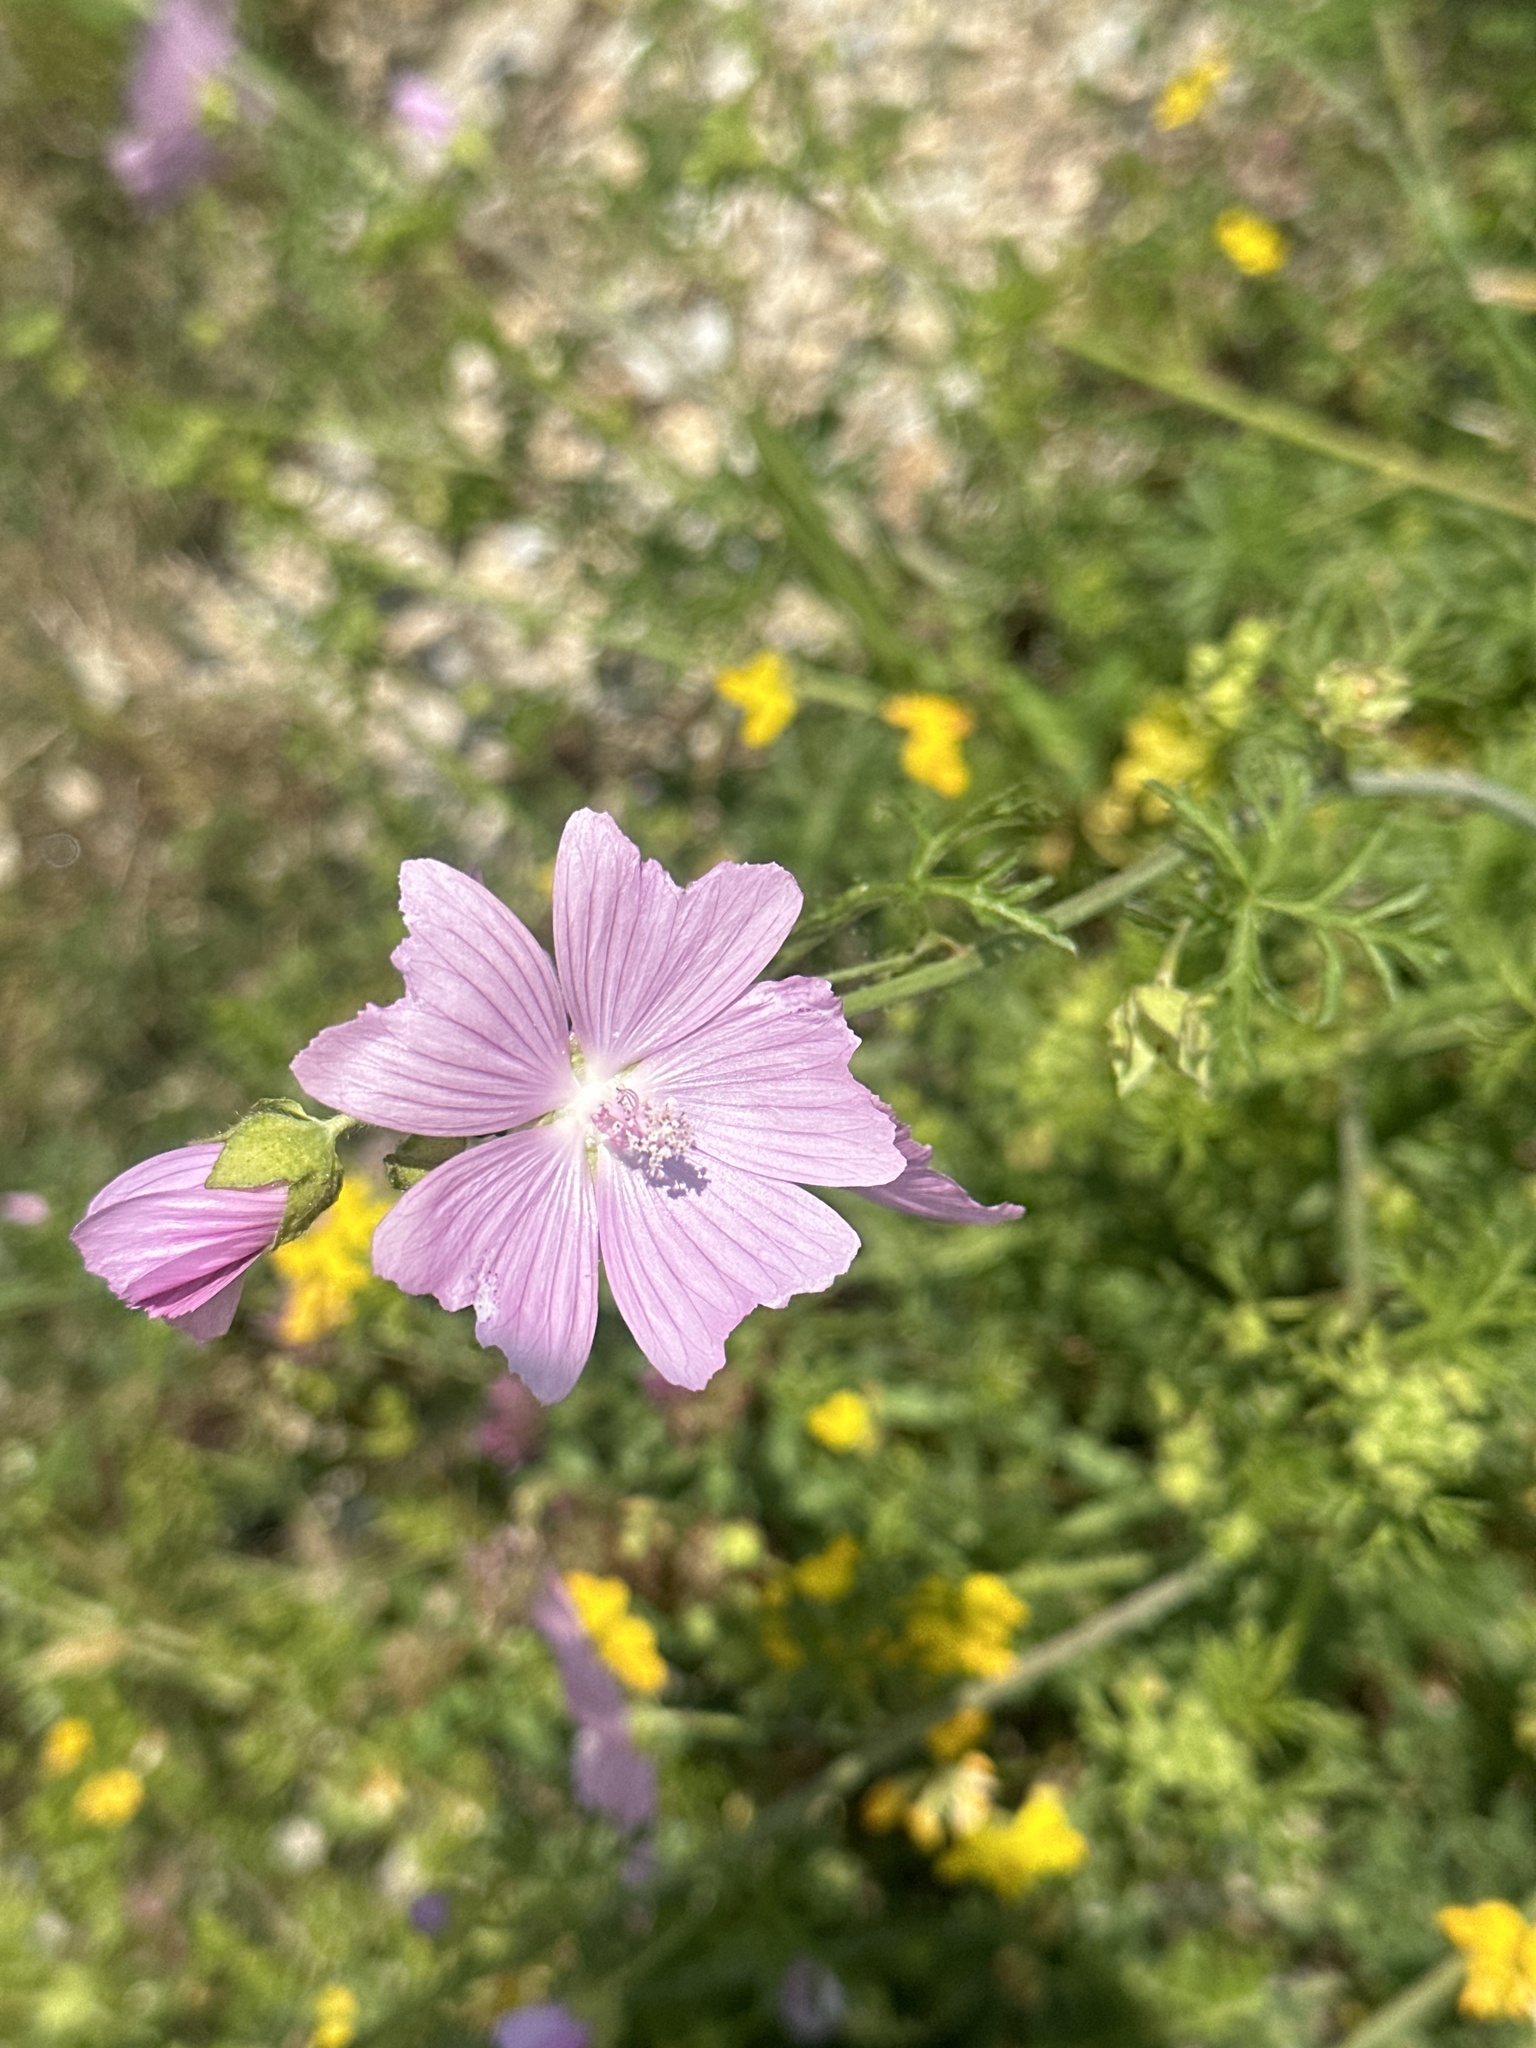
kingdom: Plantae
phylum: Tracheophyta
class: Magnoliopsida
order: Malvales
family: Malvaceae
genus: Malva
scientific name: Malva moschata
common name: Musk mallow
